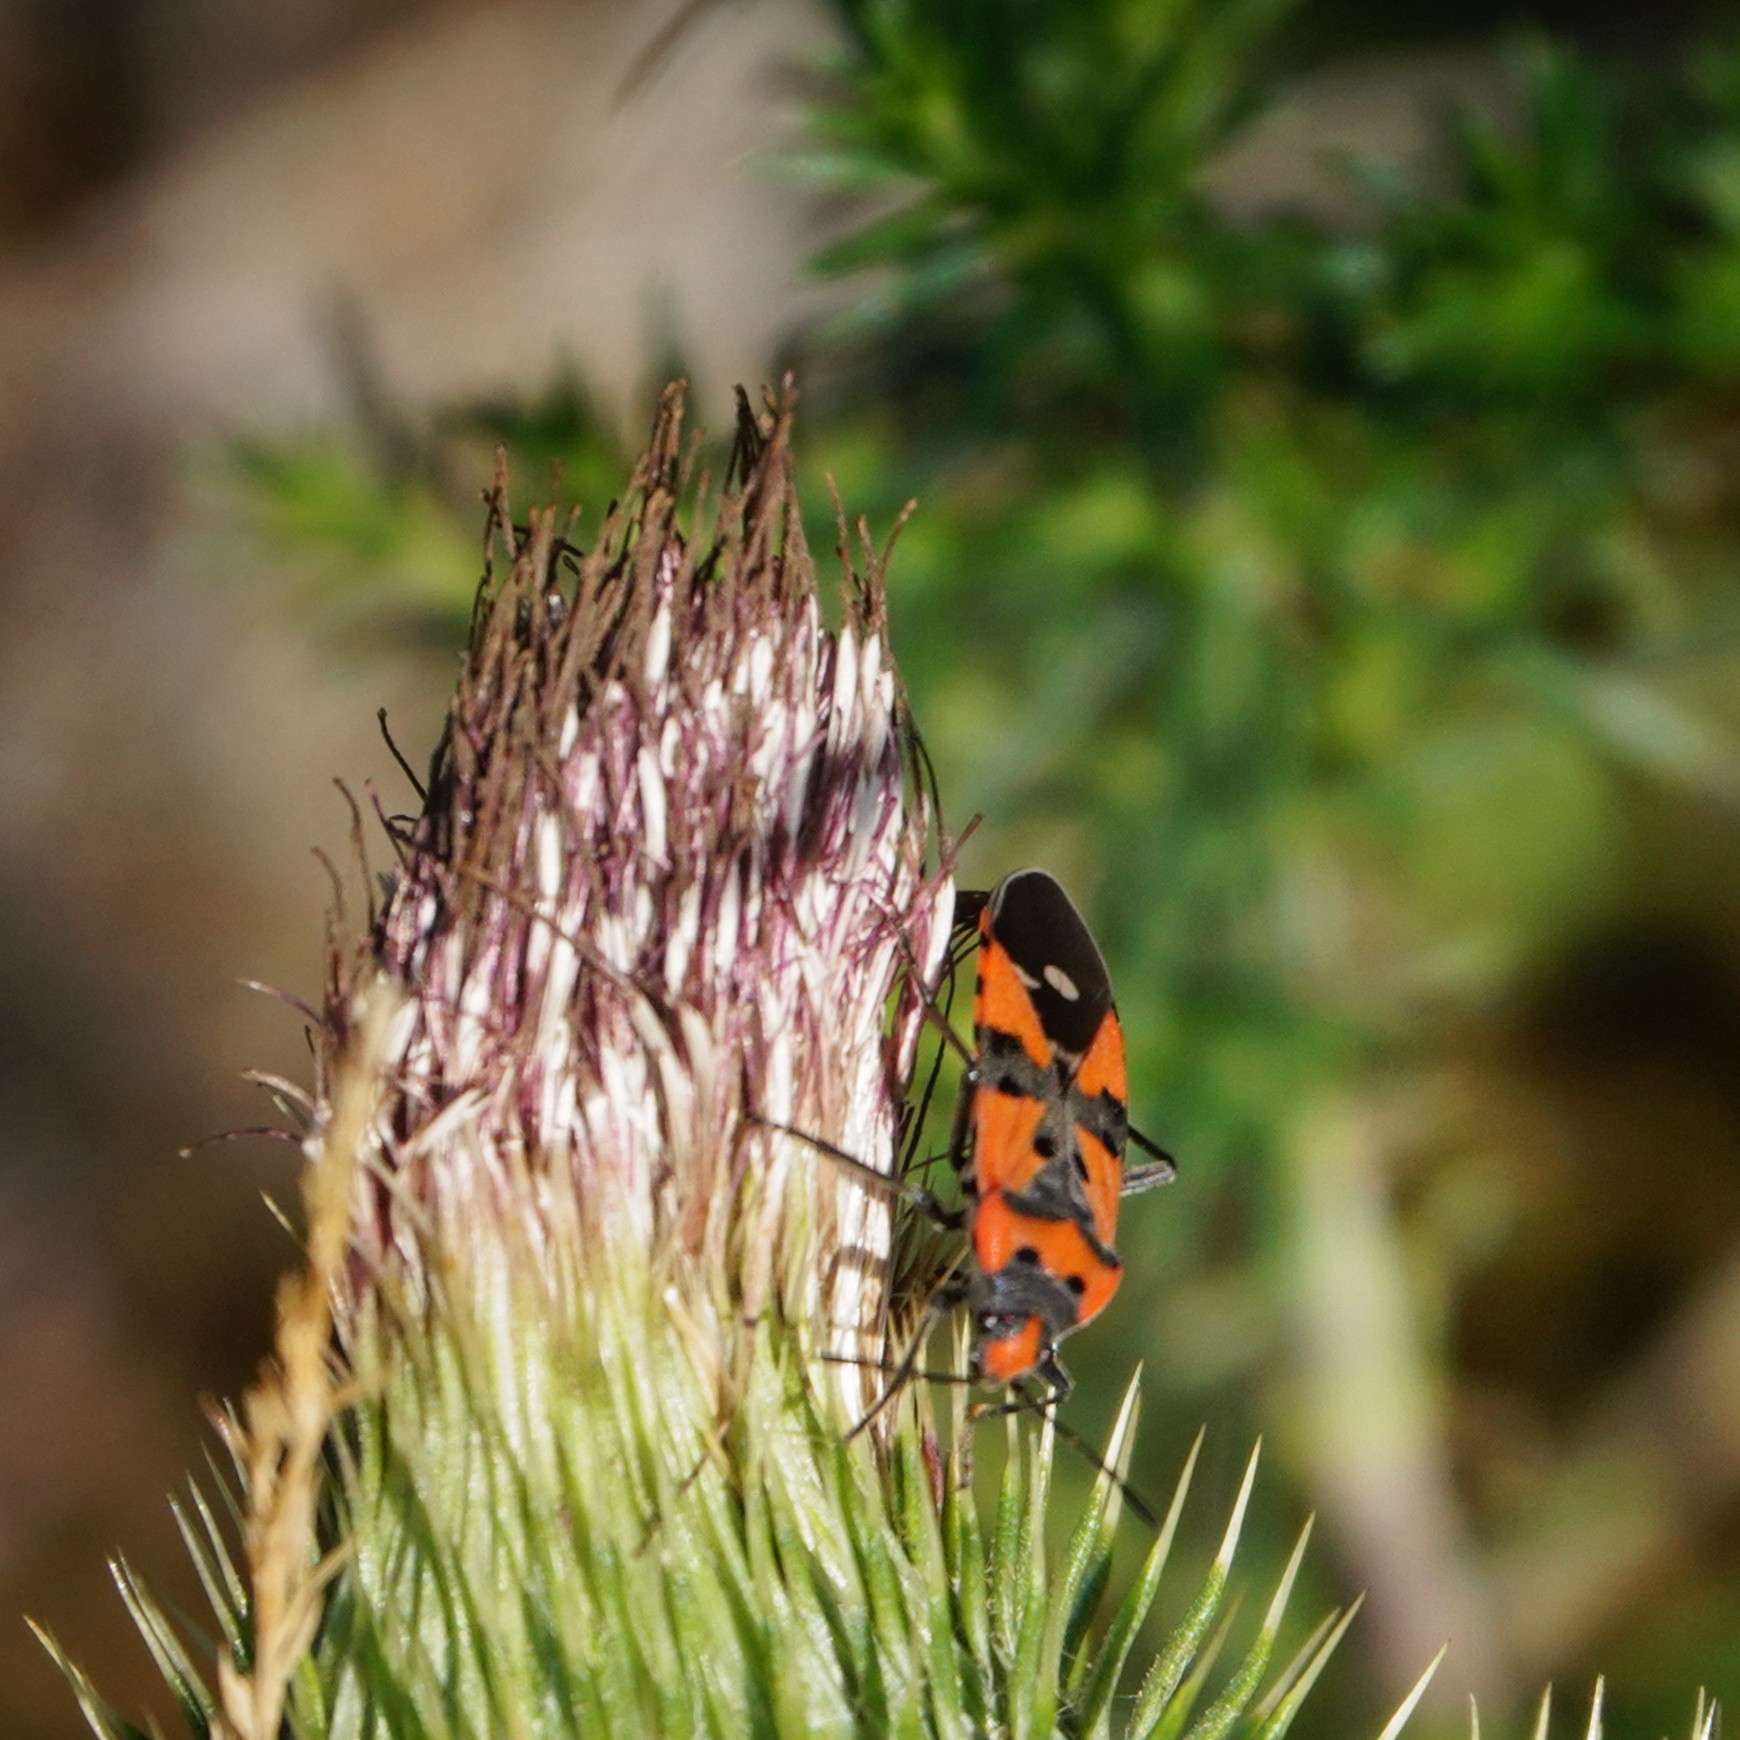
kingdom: Animalia
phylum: Arthropoda
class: Insecta
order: Hemiptera
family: Lygaeidae
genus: Lygaeus
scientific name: Lygaeus equestris
